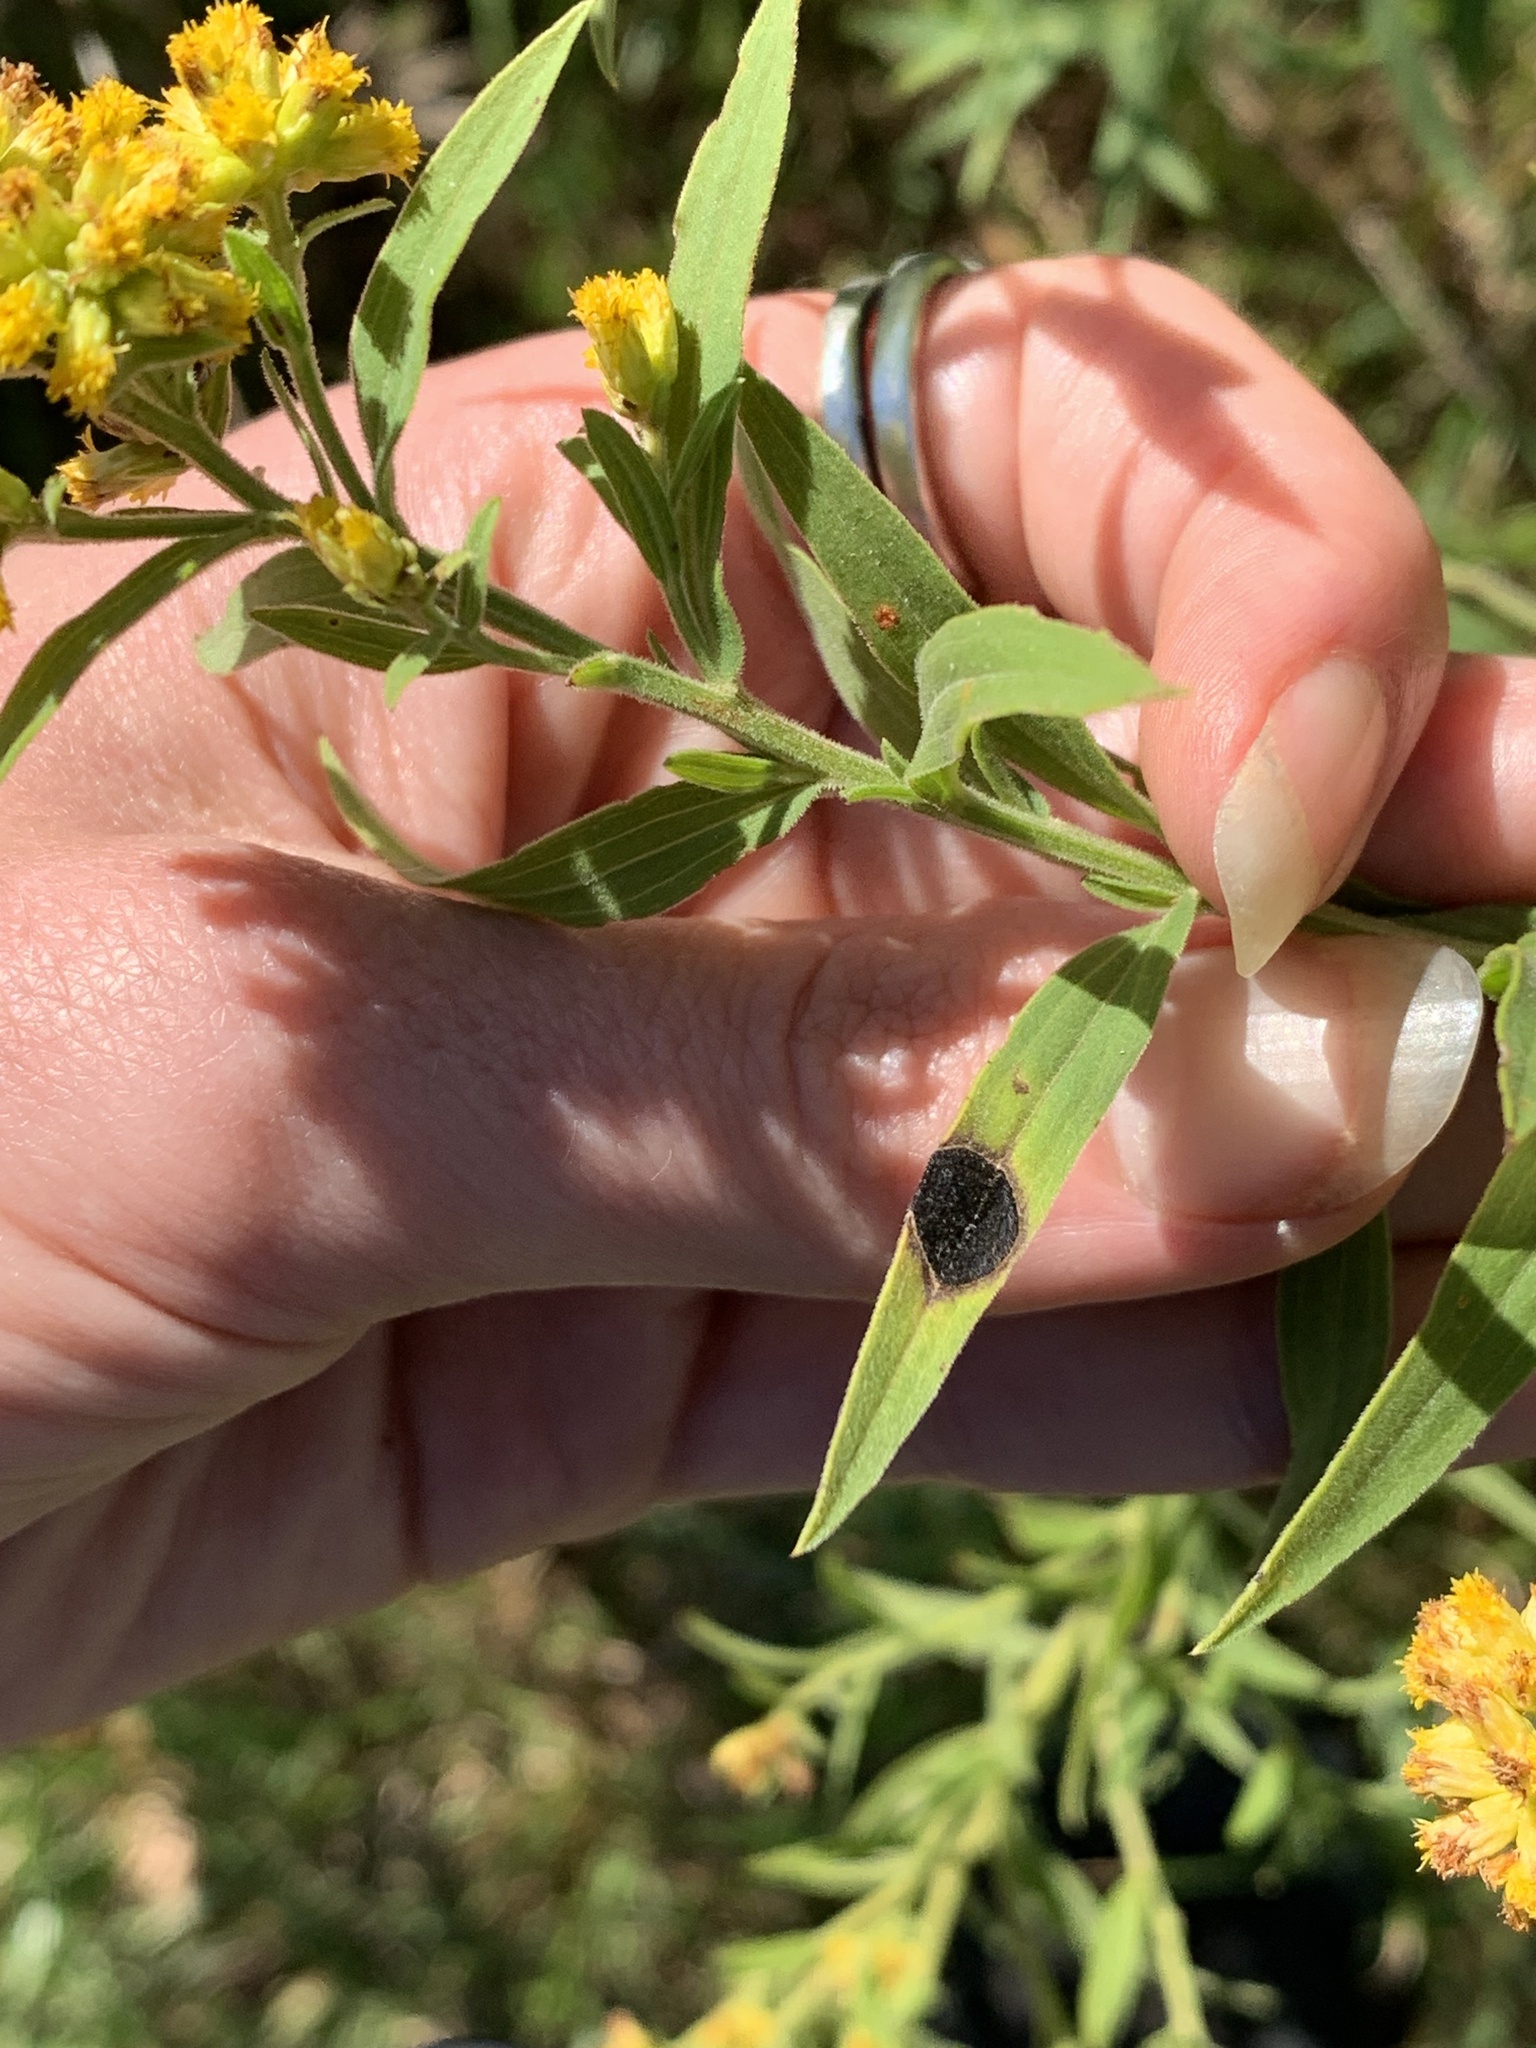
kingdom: Animalia
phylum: Arthropoda
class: Insecta
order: Diptera
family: Cecidomyiidae
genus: Asteromyia
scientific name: Asteromyia euthamiae
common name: Euthamia leaf gall midge
